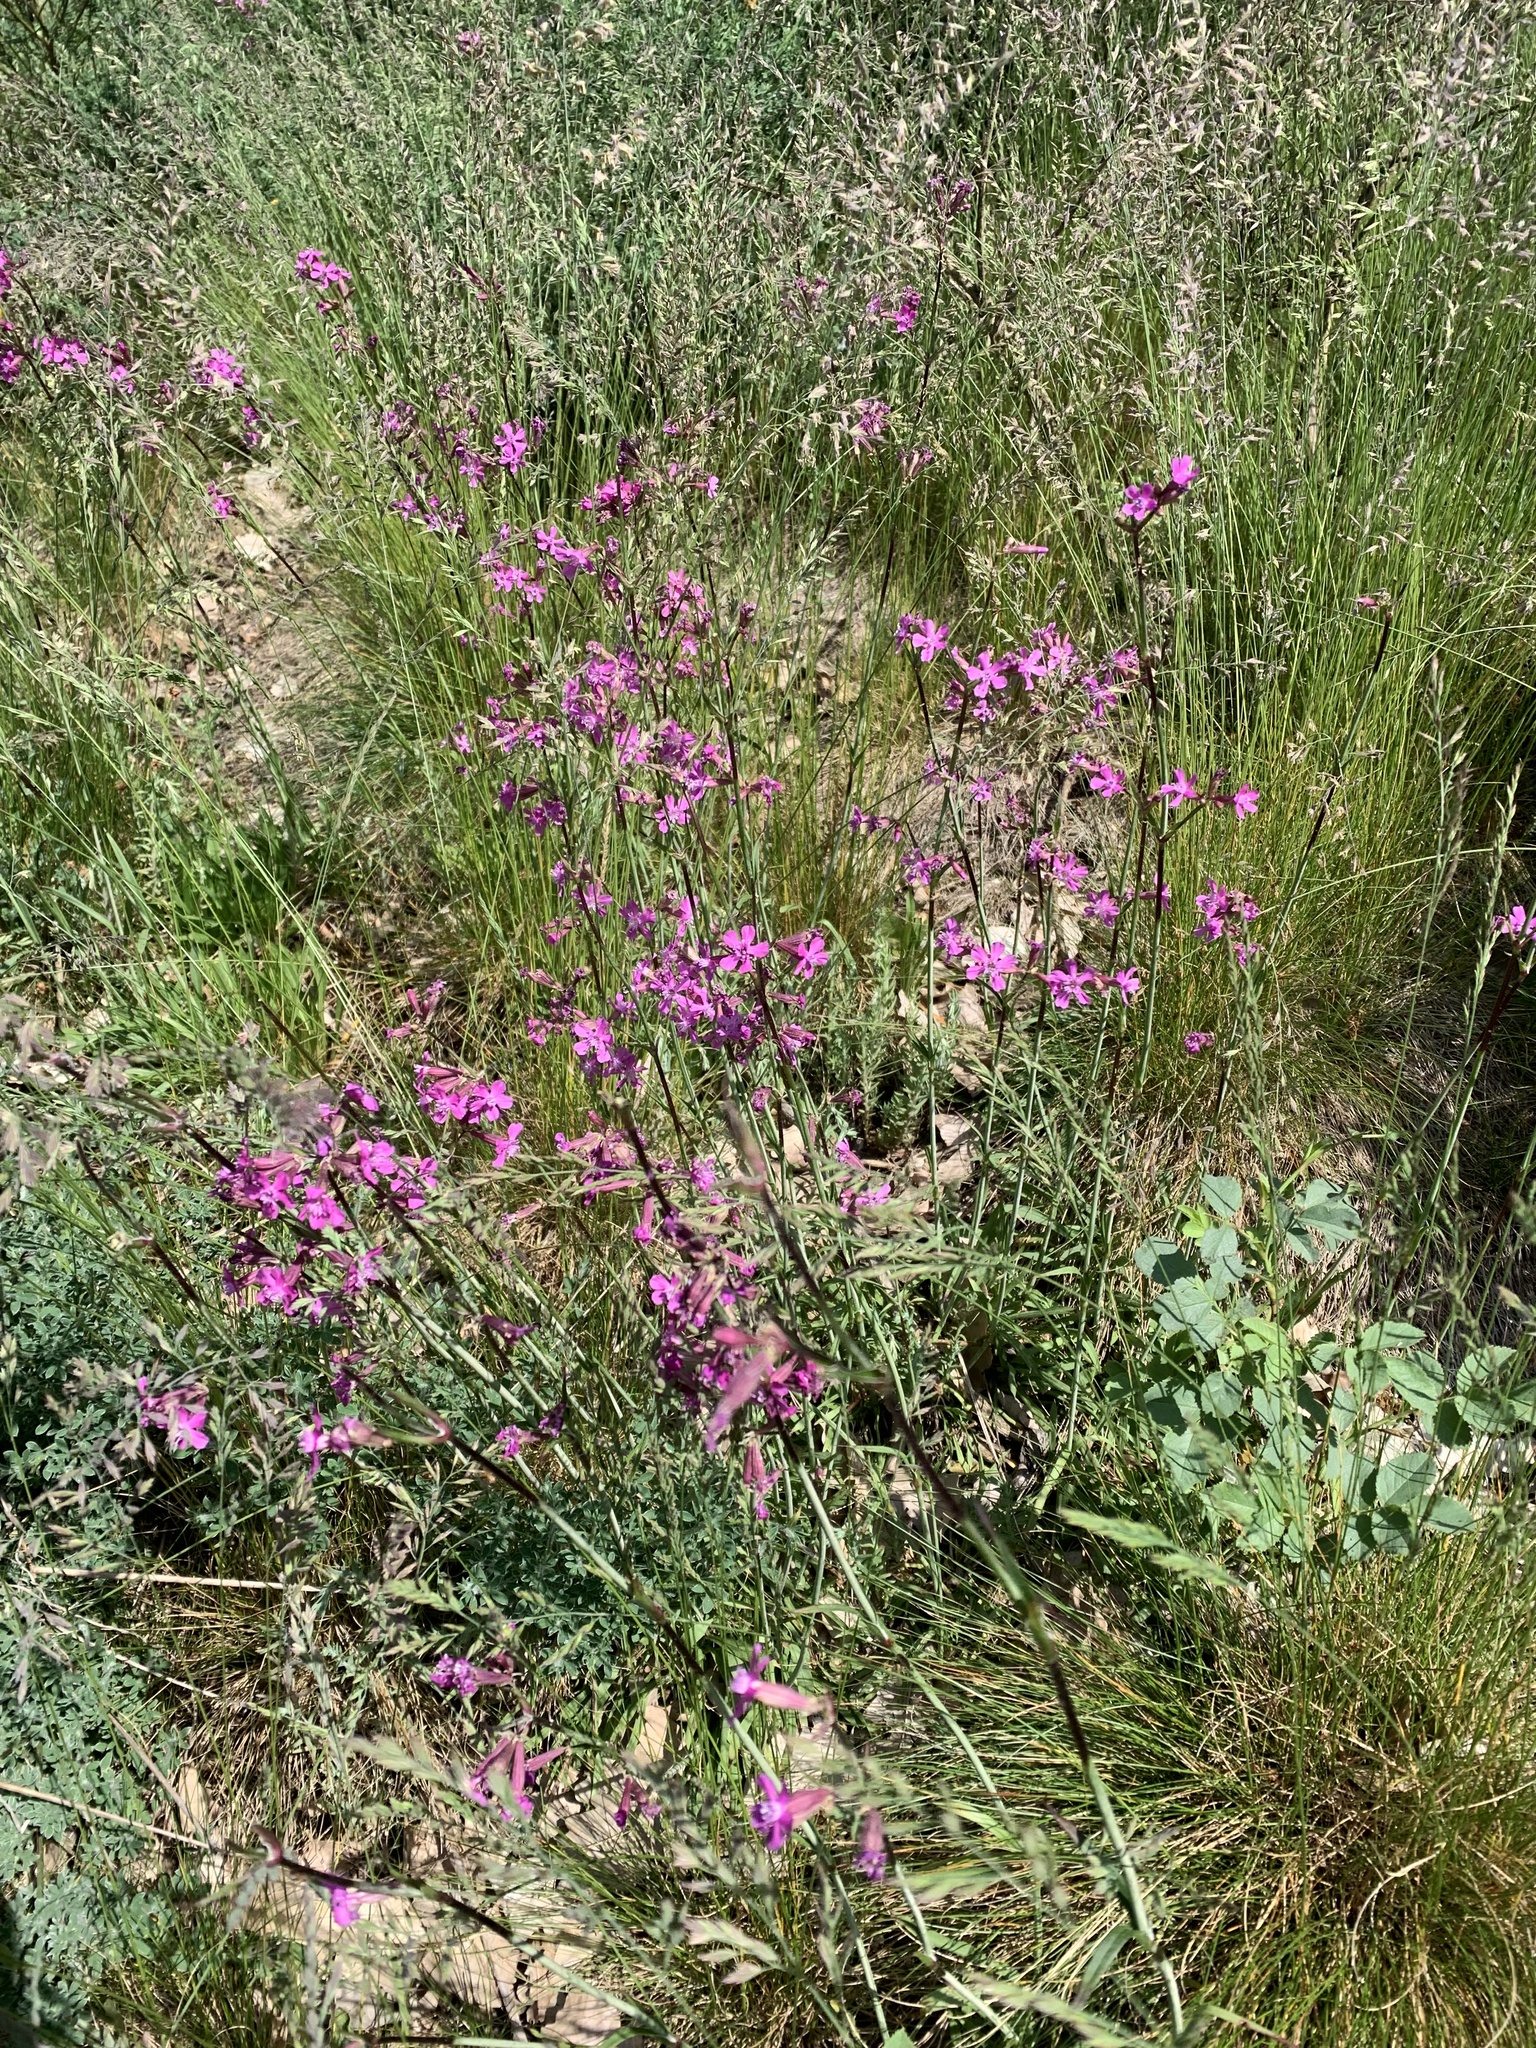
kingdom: Plantae
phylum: Tracheophyta
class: Magnoliopsida
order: Caryophyllales
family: Caryophyllaceae
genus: Viscaria
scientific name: Viscaria vulgaris
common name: Clammy campion
